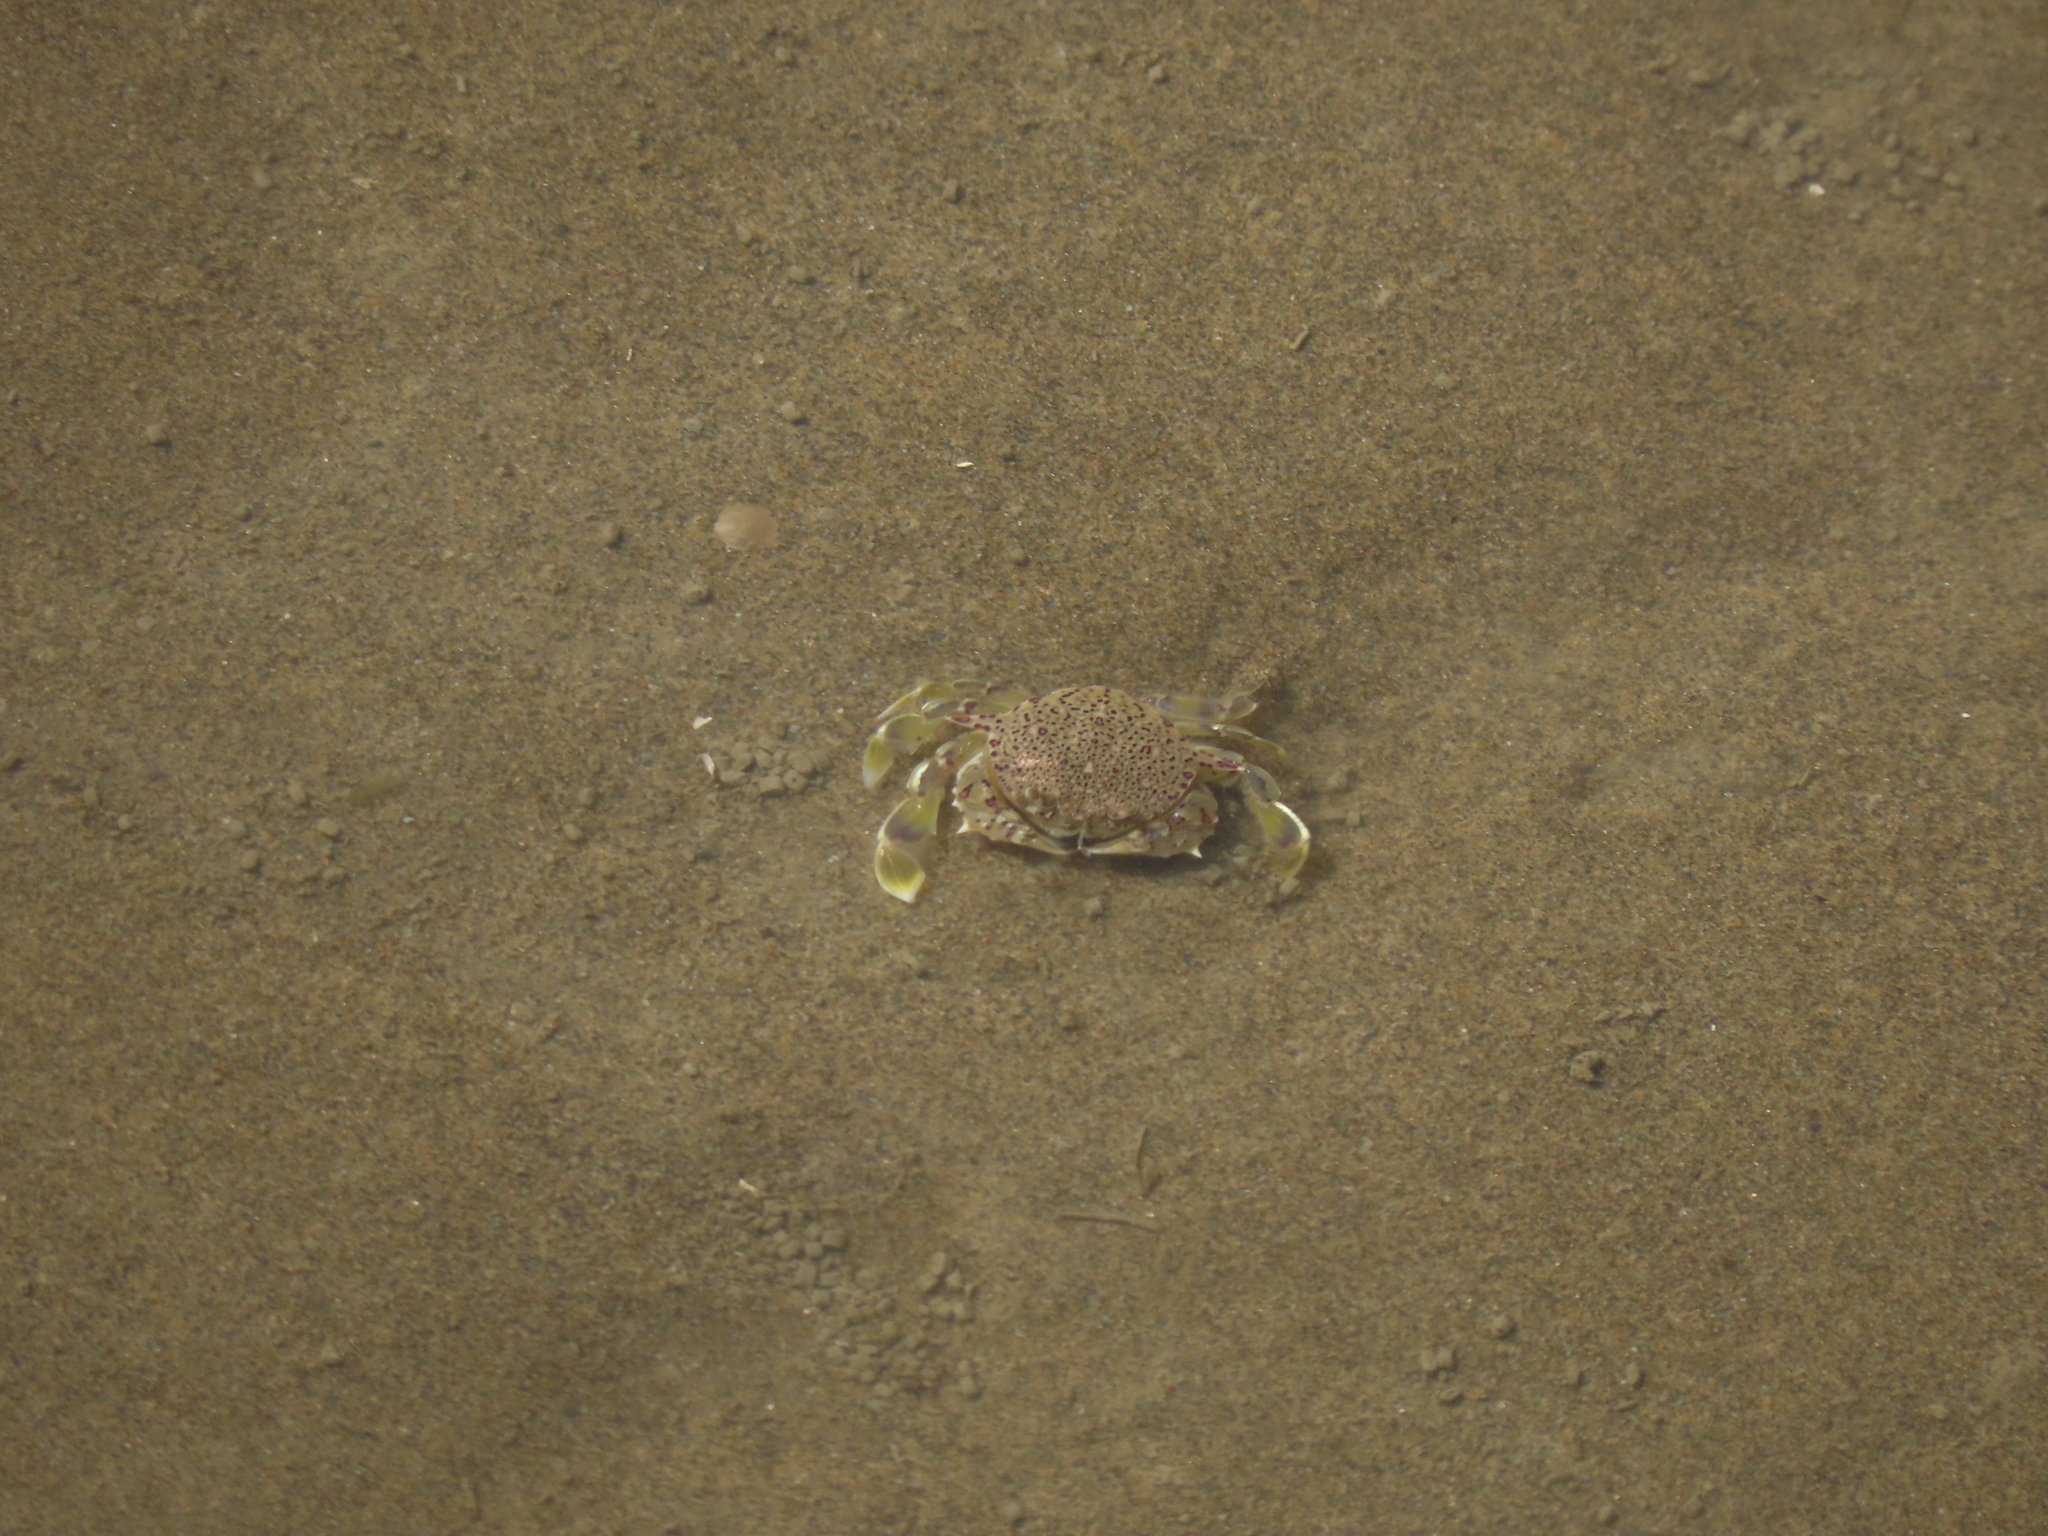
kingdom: Animalia
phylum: Arthropoda
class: Malacostraca
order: Decapoda
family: Matutidae
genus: Matuta
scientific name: Matuta victor
